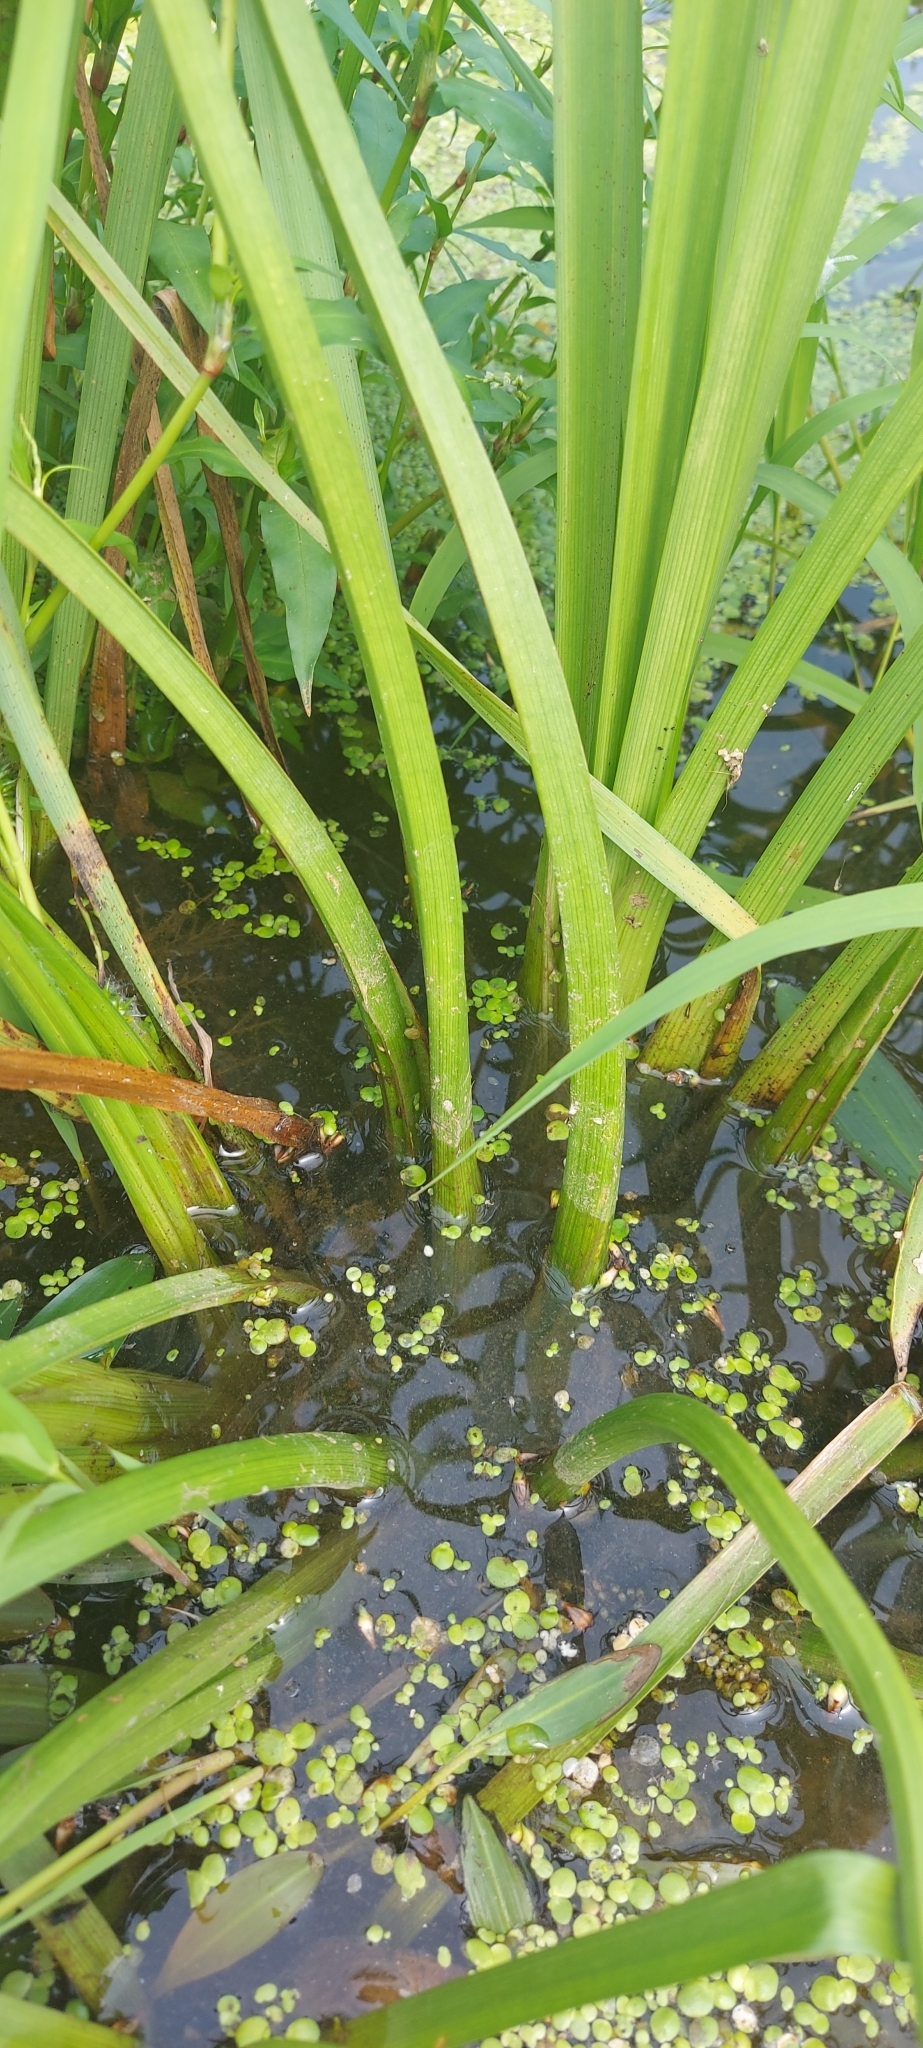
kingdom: Plantae
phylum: Tracheophyta
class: Liliopsida
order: Alismatales
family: Alismataceae
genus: Sagittaria
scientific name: Sagittaria sagittifolia
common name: Arrowhead
